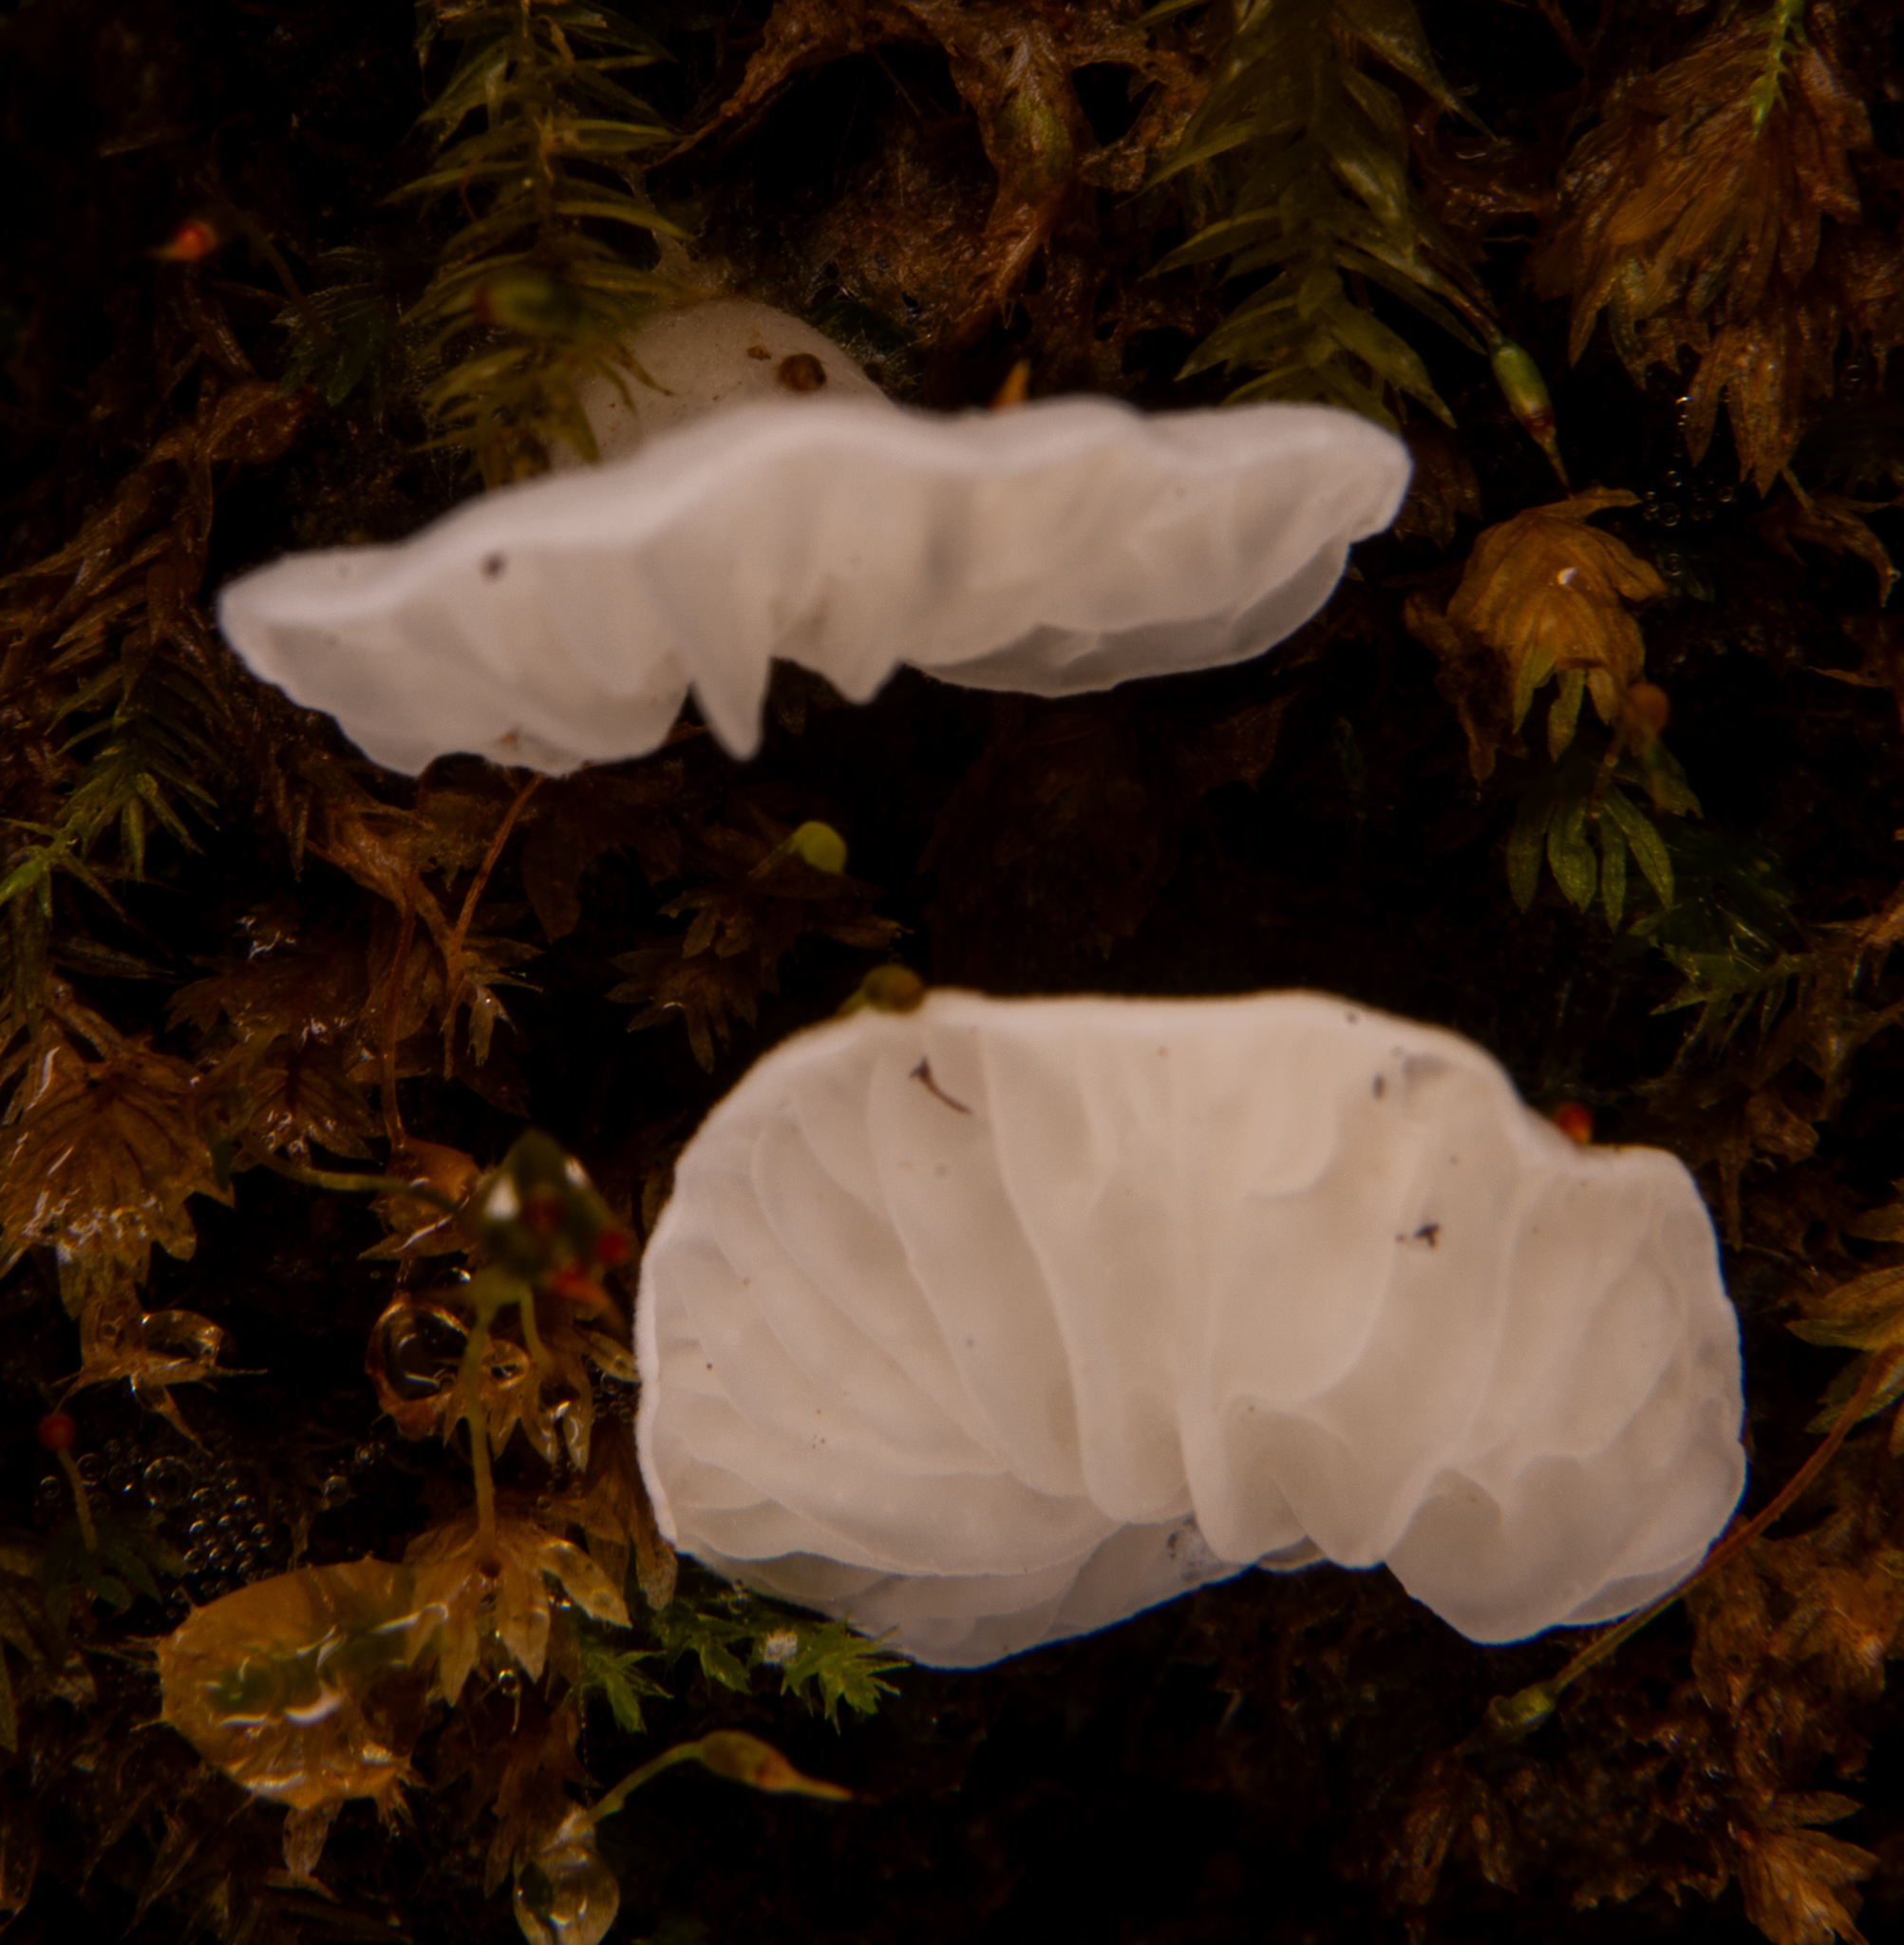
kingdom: Fungi
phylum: Basidiomycota
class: Agaricomycetes
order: Agaricales
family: Tricholomataceae
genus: Rimbachia
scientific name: Rimbachia bryophila
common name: Veined mossear
